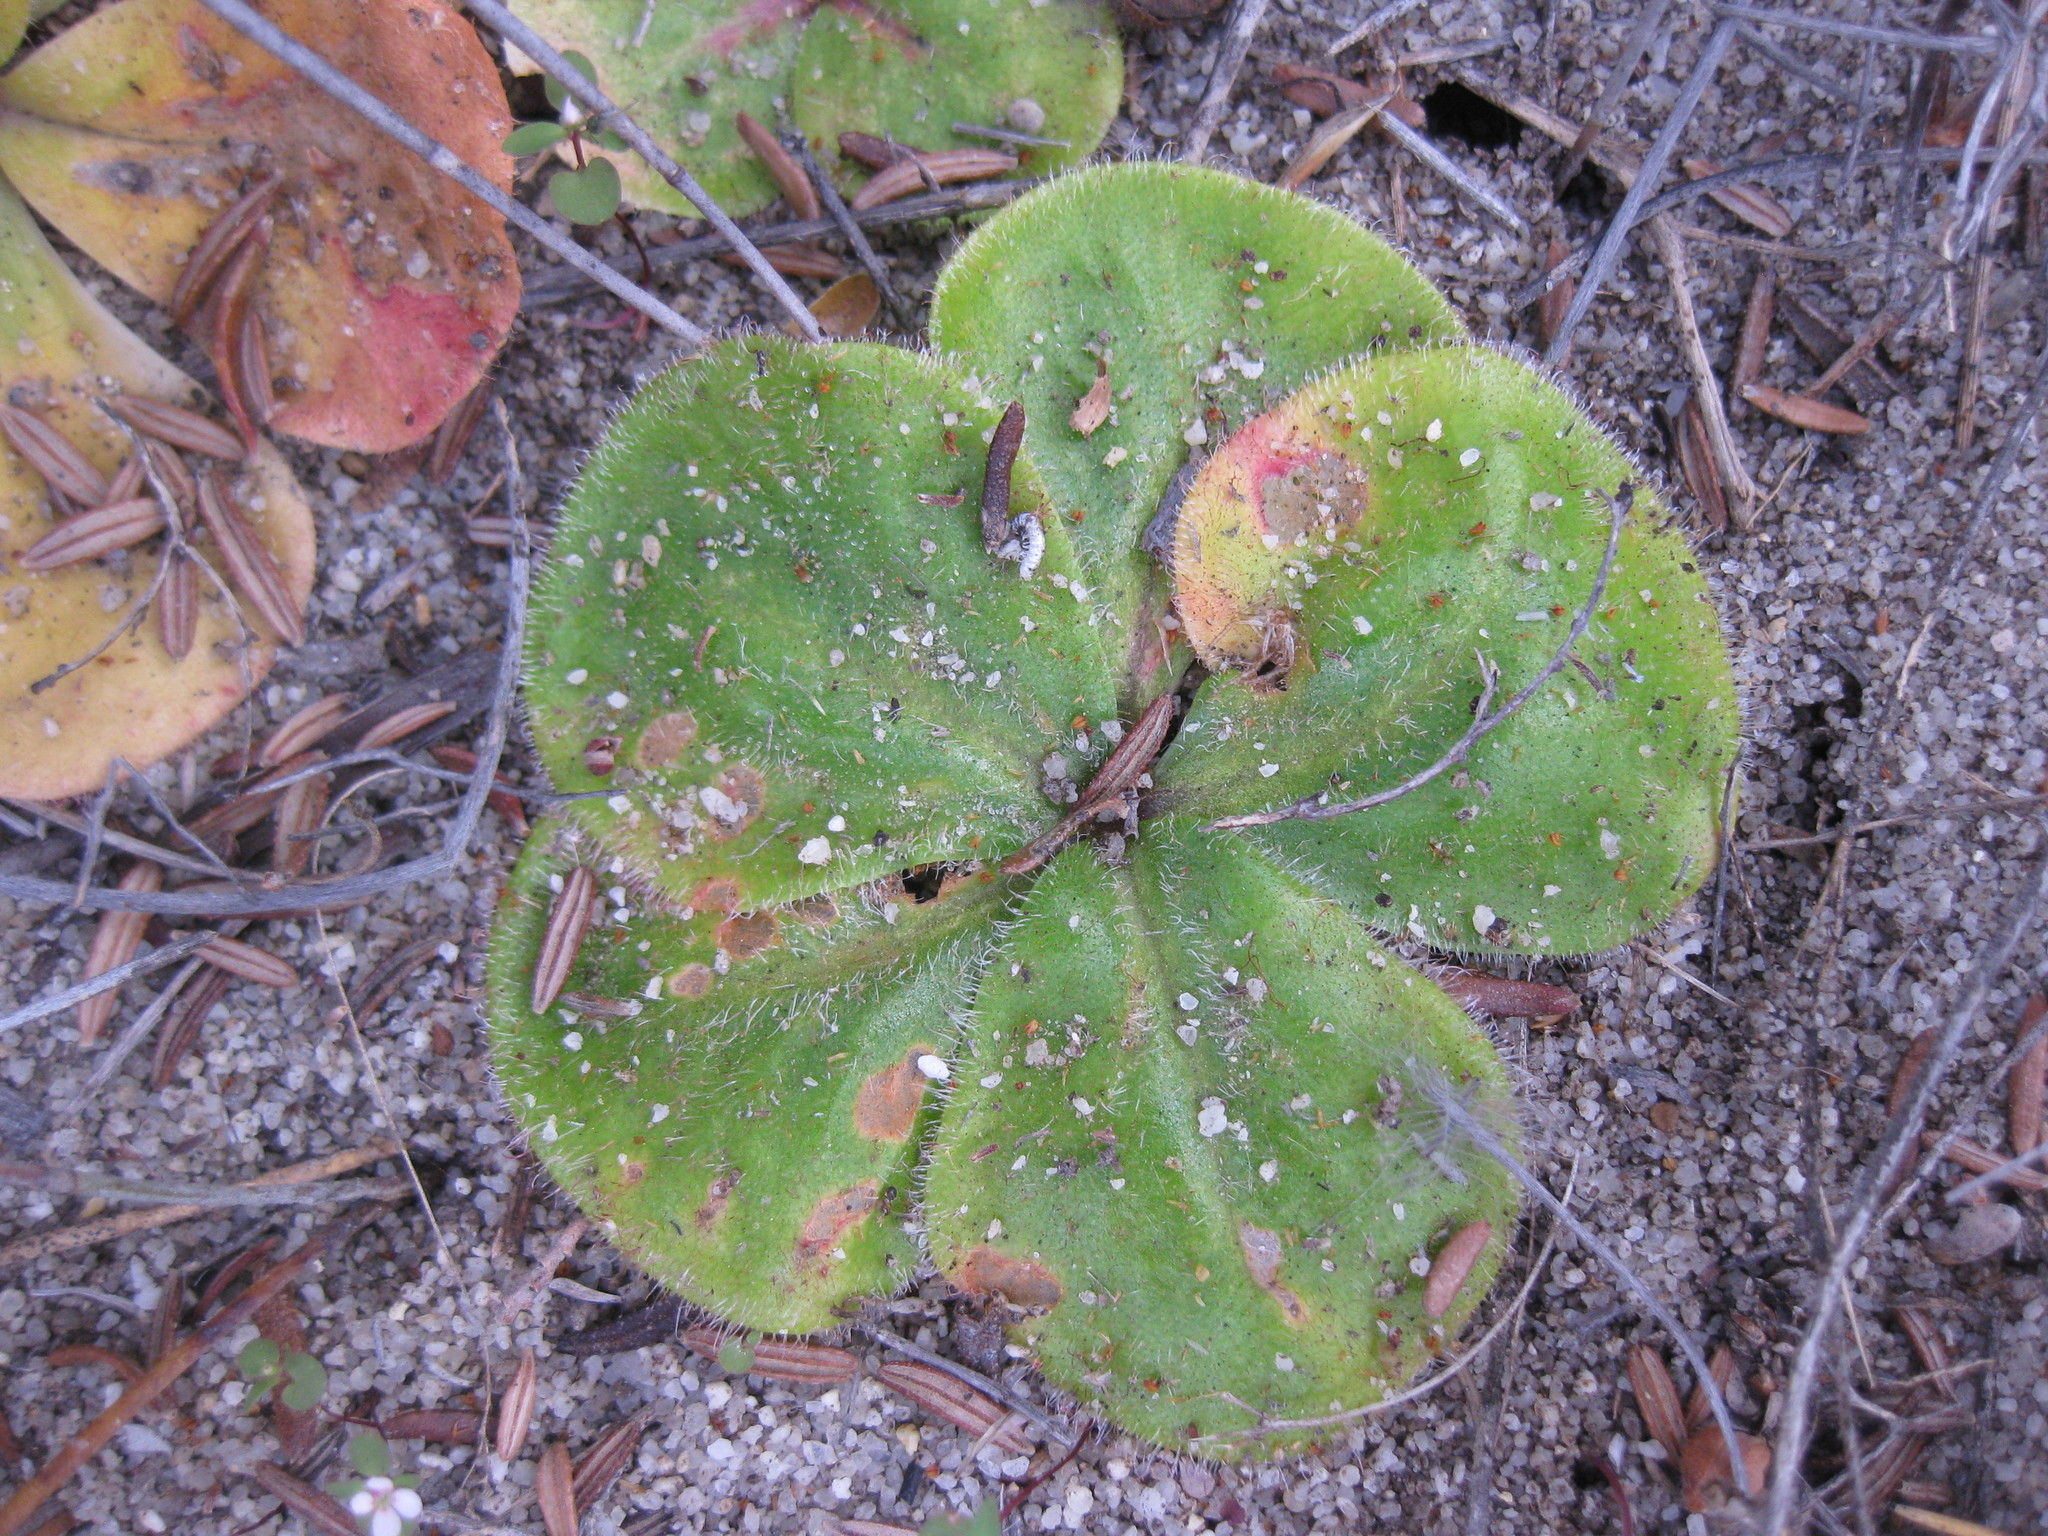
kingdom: Plantae
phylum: Tracheophyta
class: Magnoliopsida
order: Caryophyllales
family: Droseraceae
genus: Drosera
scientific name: Drosera erythrorhiza
